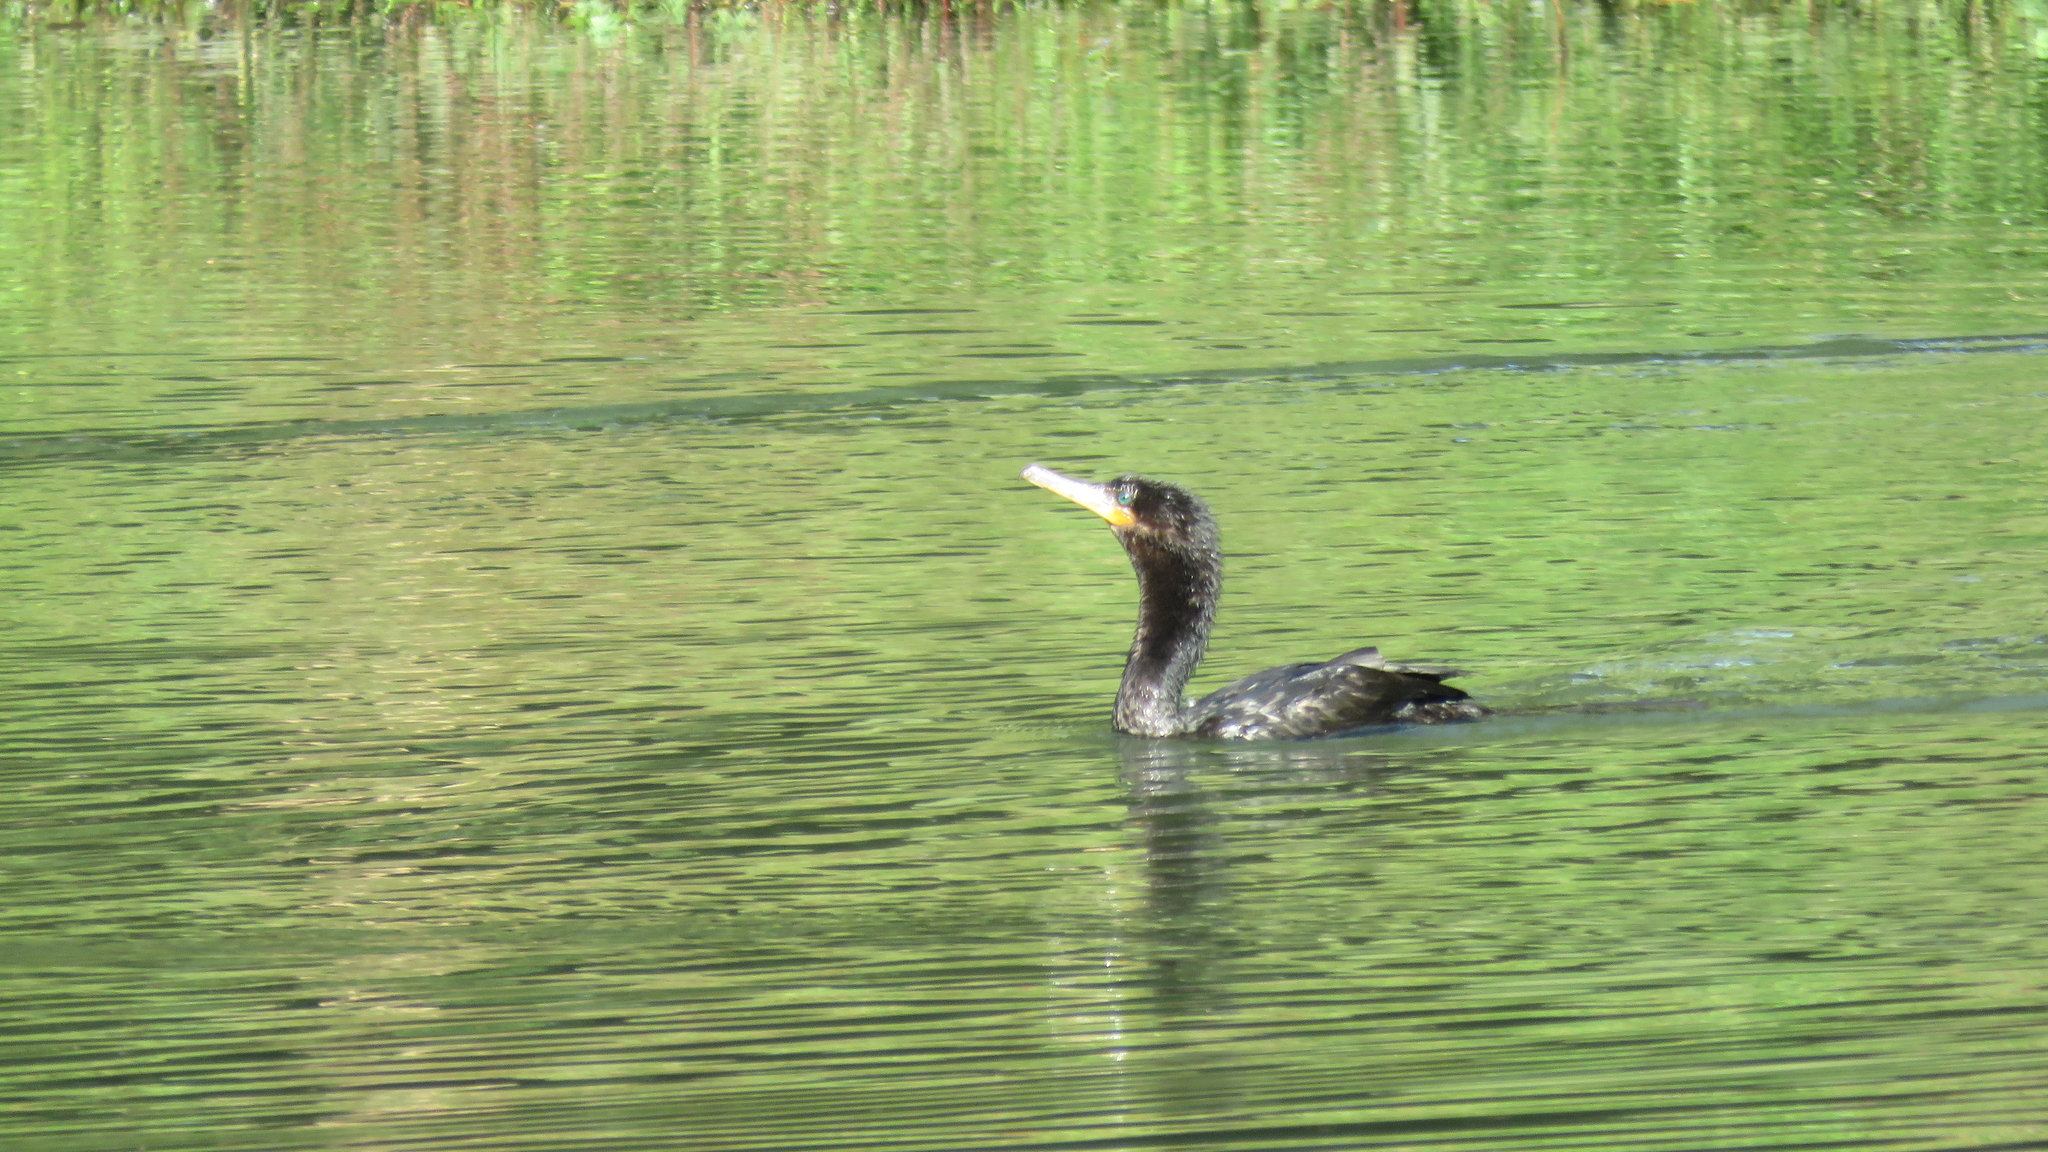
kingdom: Animalia
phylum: Chordata
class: Aves
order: Suliformes
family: Phalacrocoracidae
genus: Phalacrocorax
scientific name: Phalacrocorax brasilianus
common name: Neotropic cormorant
